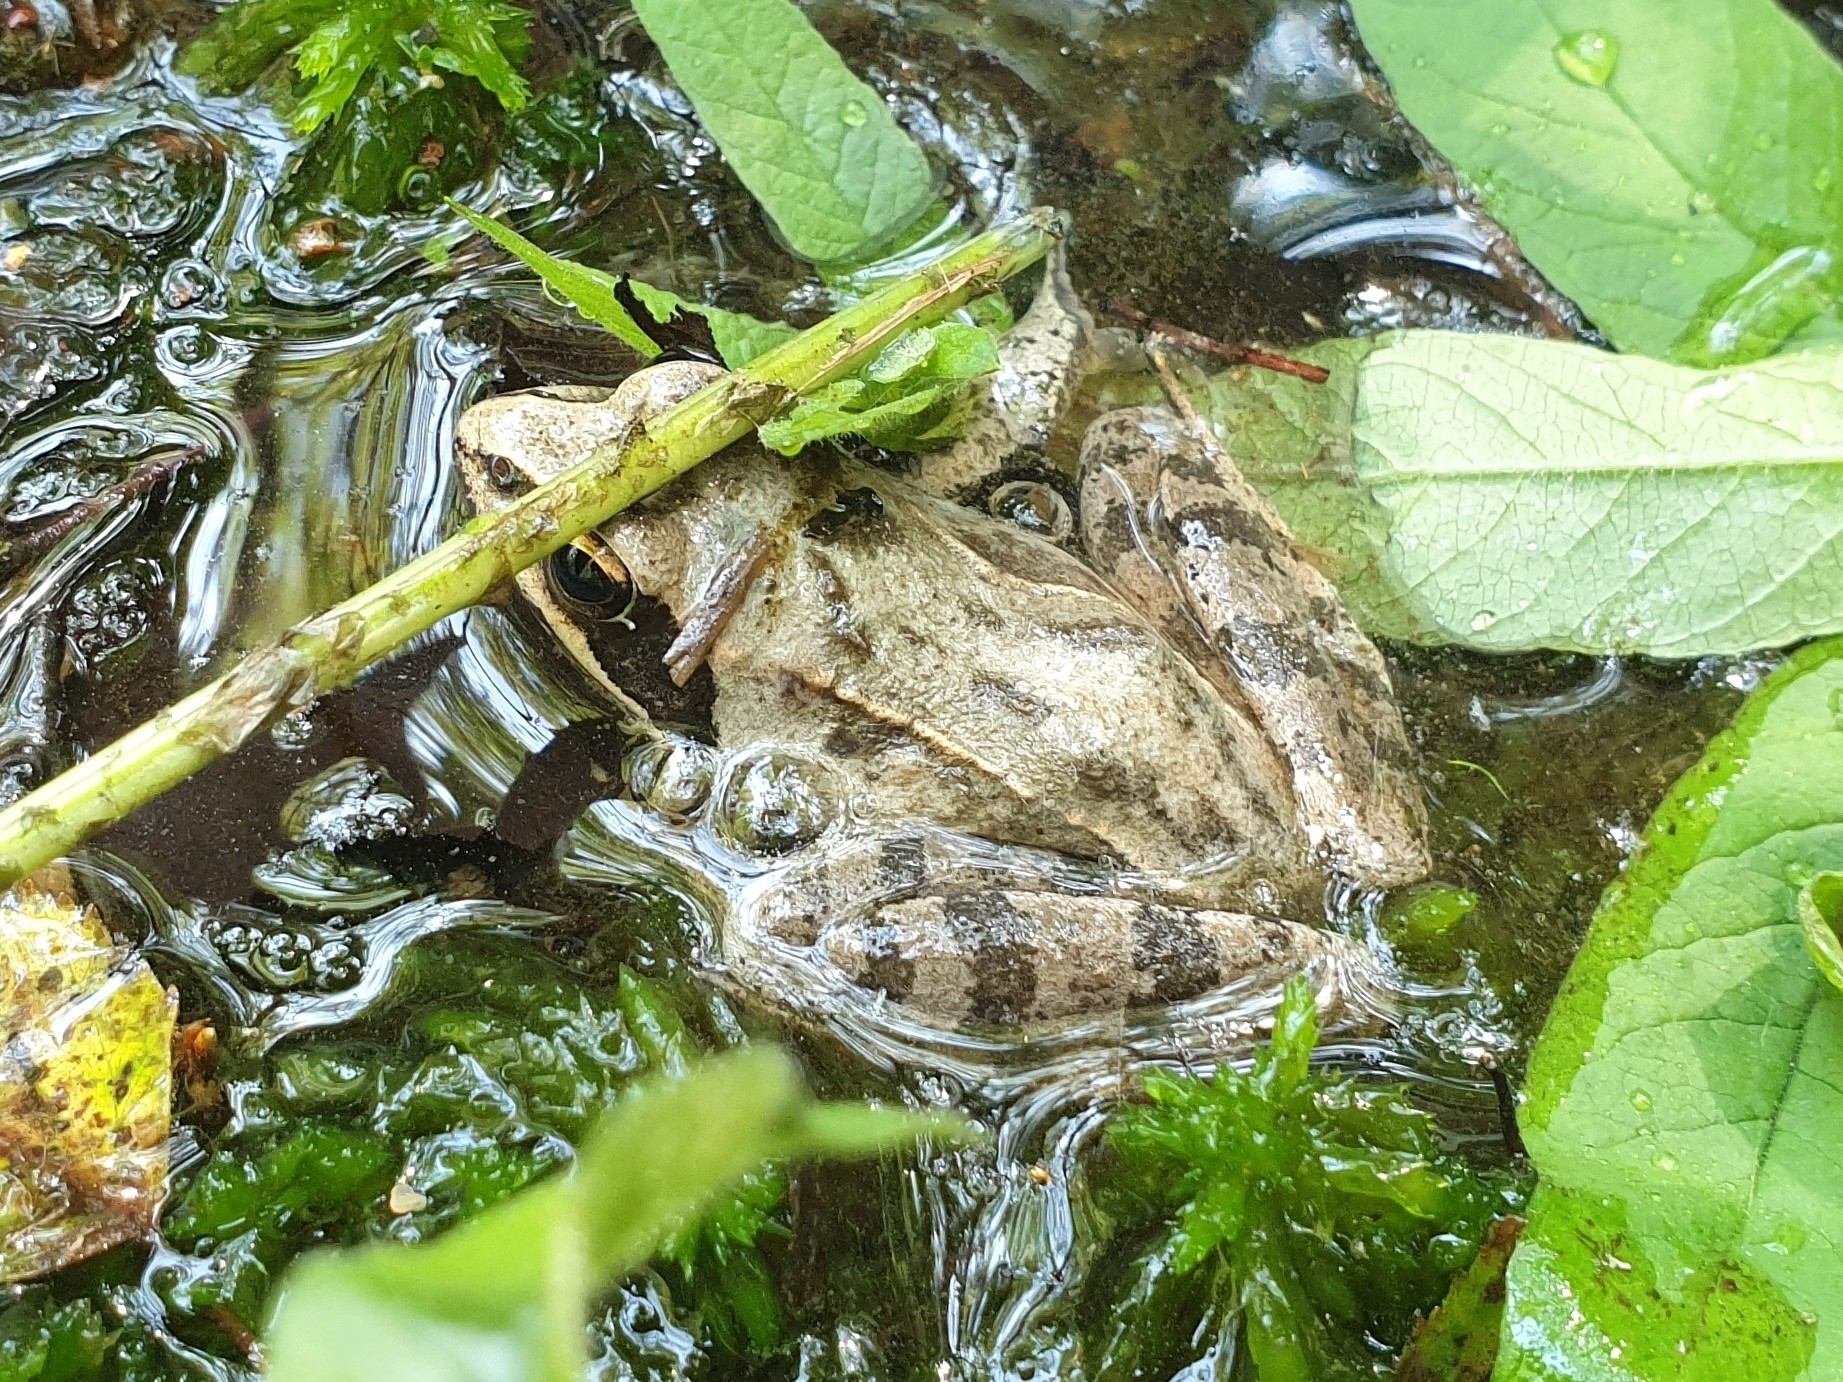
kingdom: Animalia
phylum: Chordata
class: Amphibia
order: Anura
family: Ranidae
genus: Rana
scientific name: Rana dalmatina
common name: Agile frog
